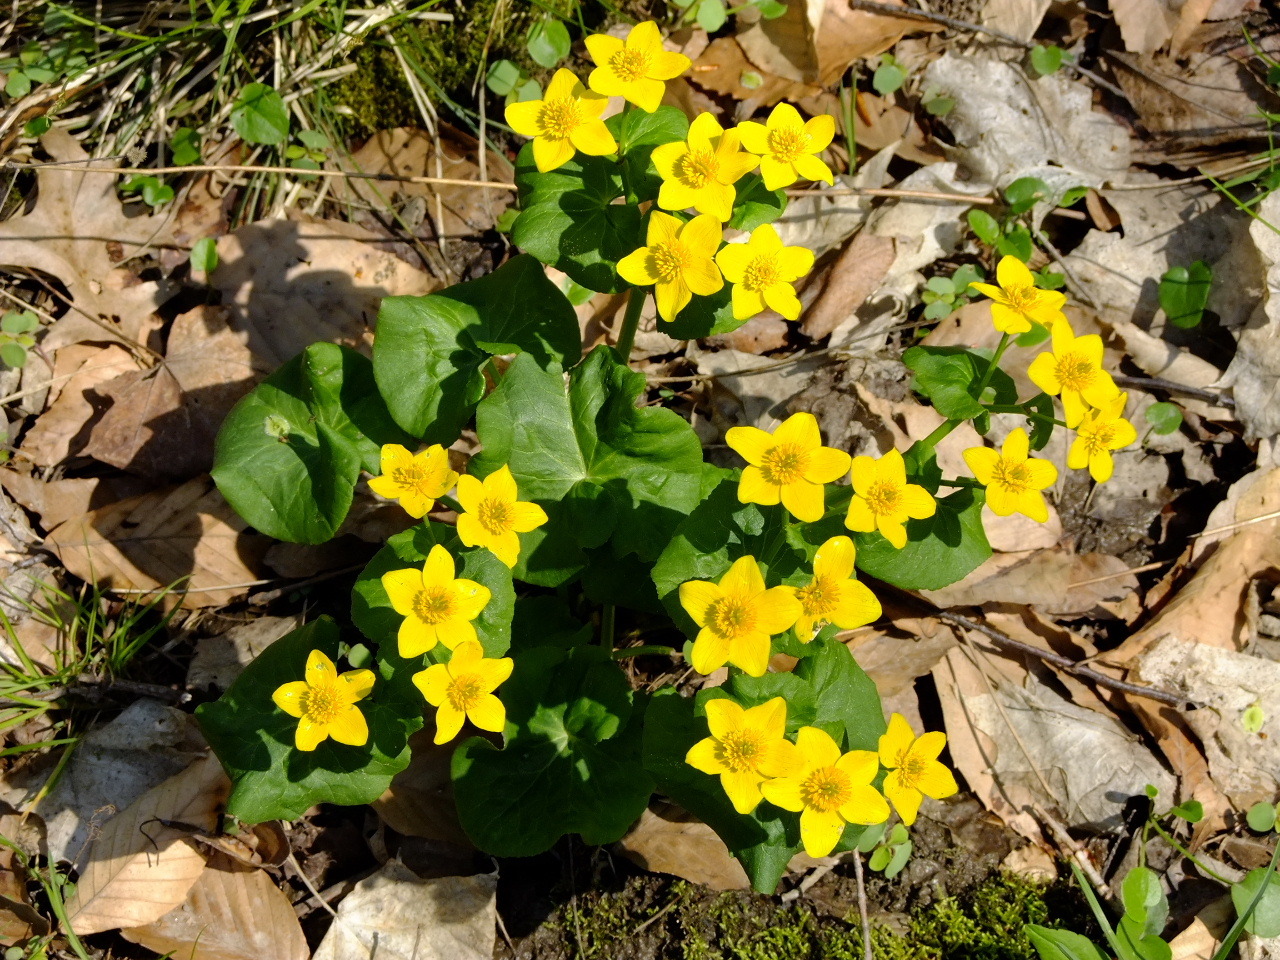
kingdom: Plantae
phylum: Tracheophyta
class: Magnoliopsida
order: Ranunculales
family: Ranunculaceae
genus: Caltha
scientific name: Caltha palustris
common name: Marsh marigold
